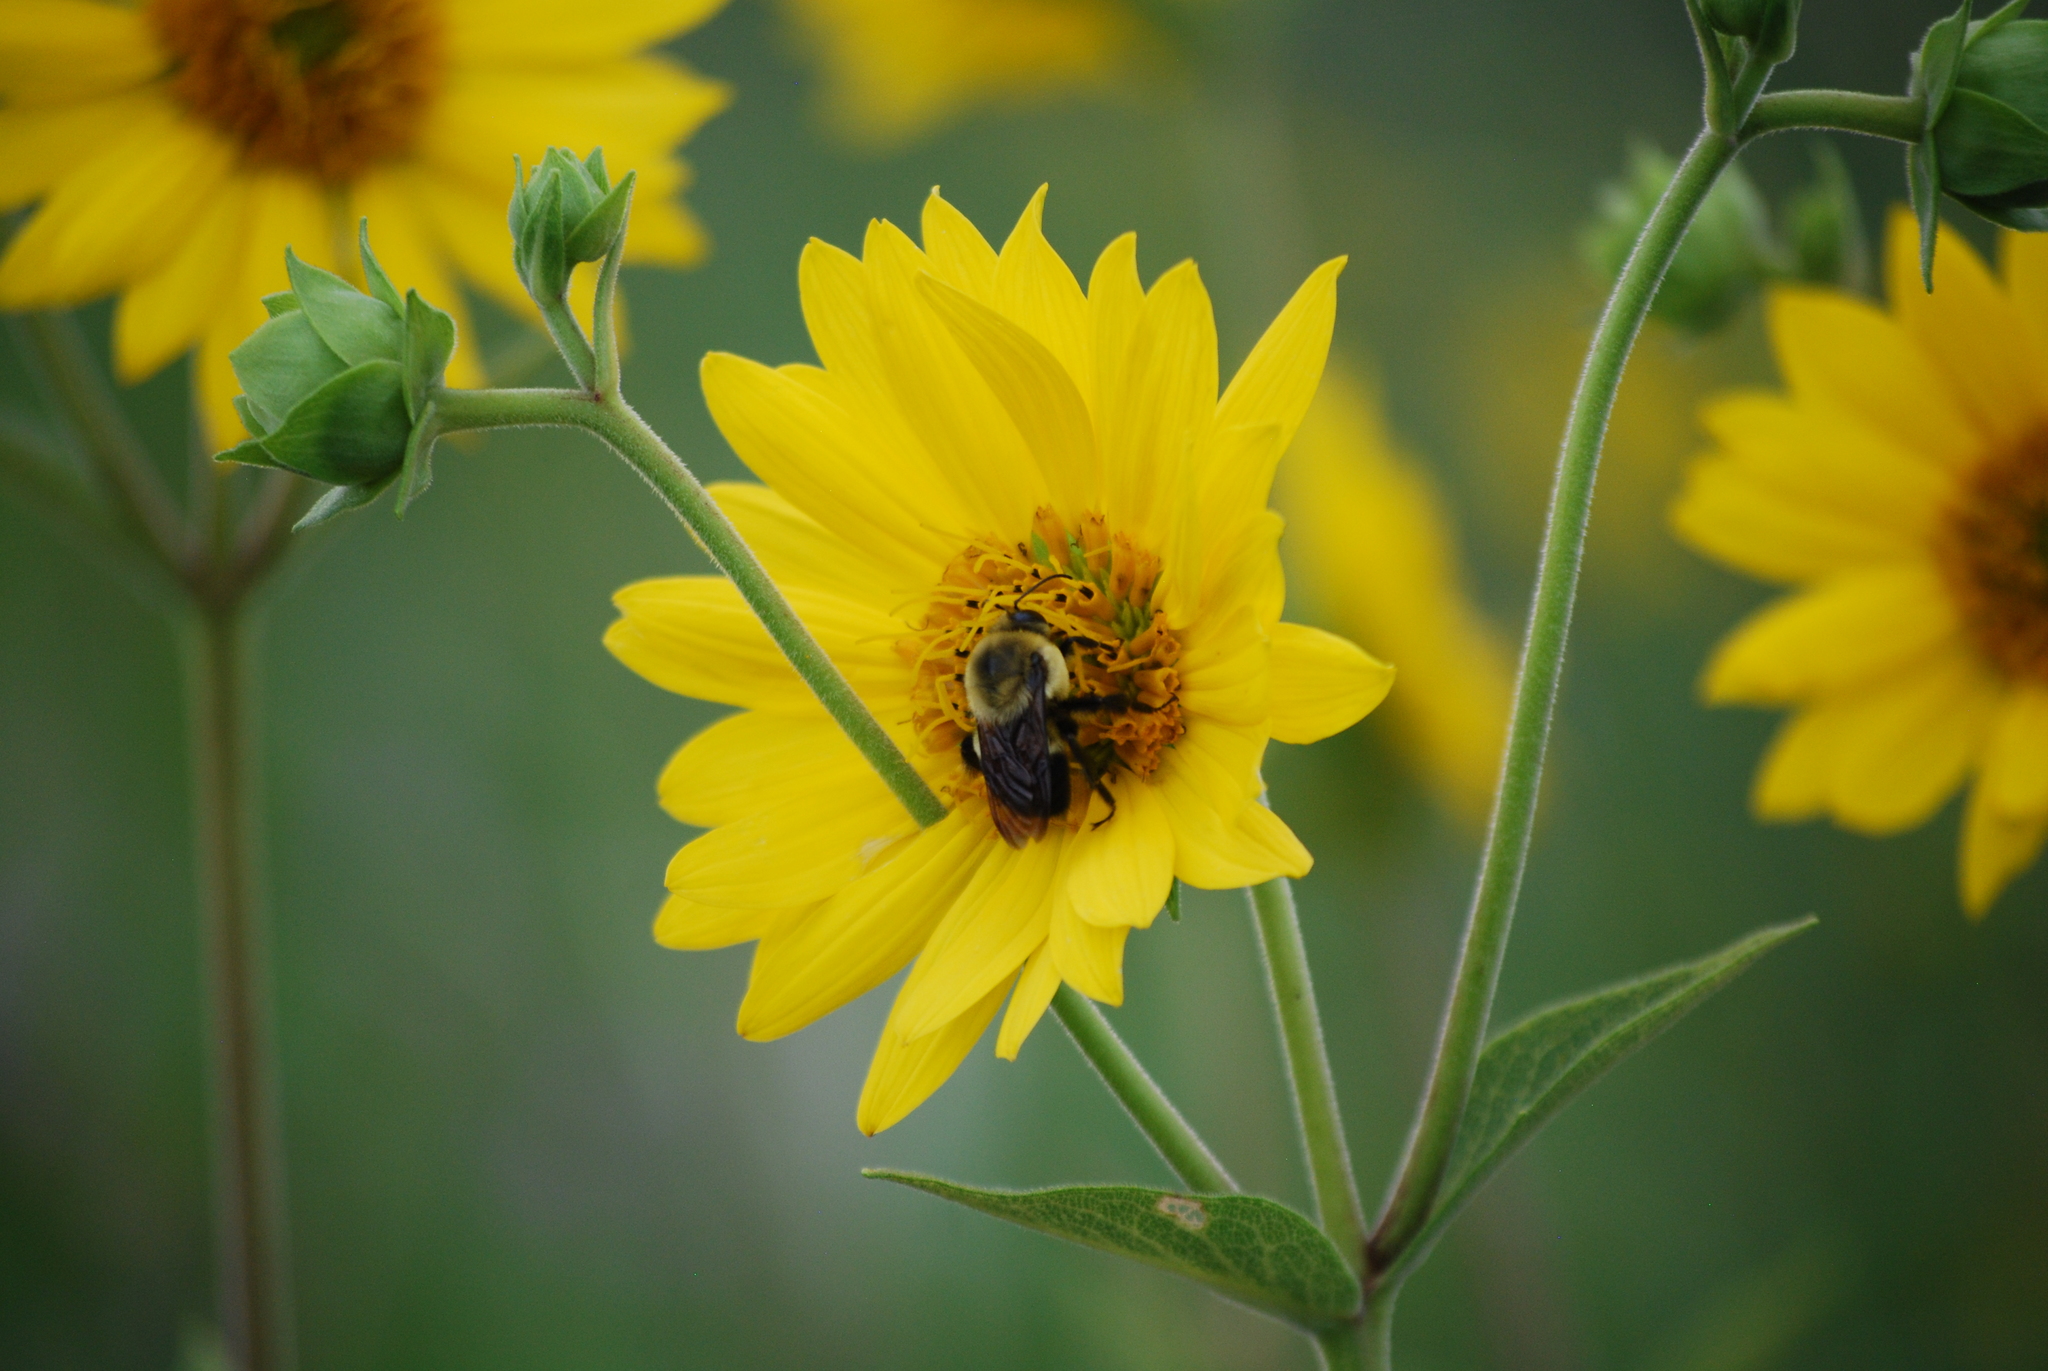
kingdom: Animalia
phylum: Arthropoda
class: Insecta
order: Hymenoptera
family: Apidae
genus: Bombus
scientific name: Bombus griseocollis
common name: Brown-belted bumble bee
